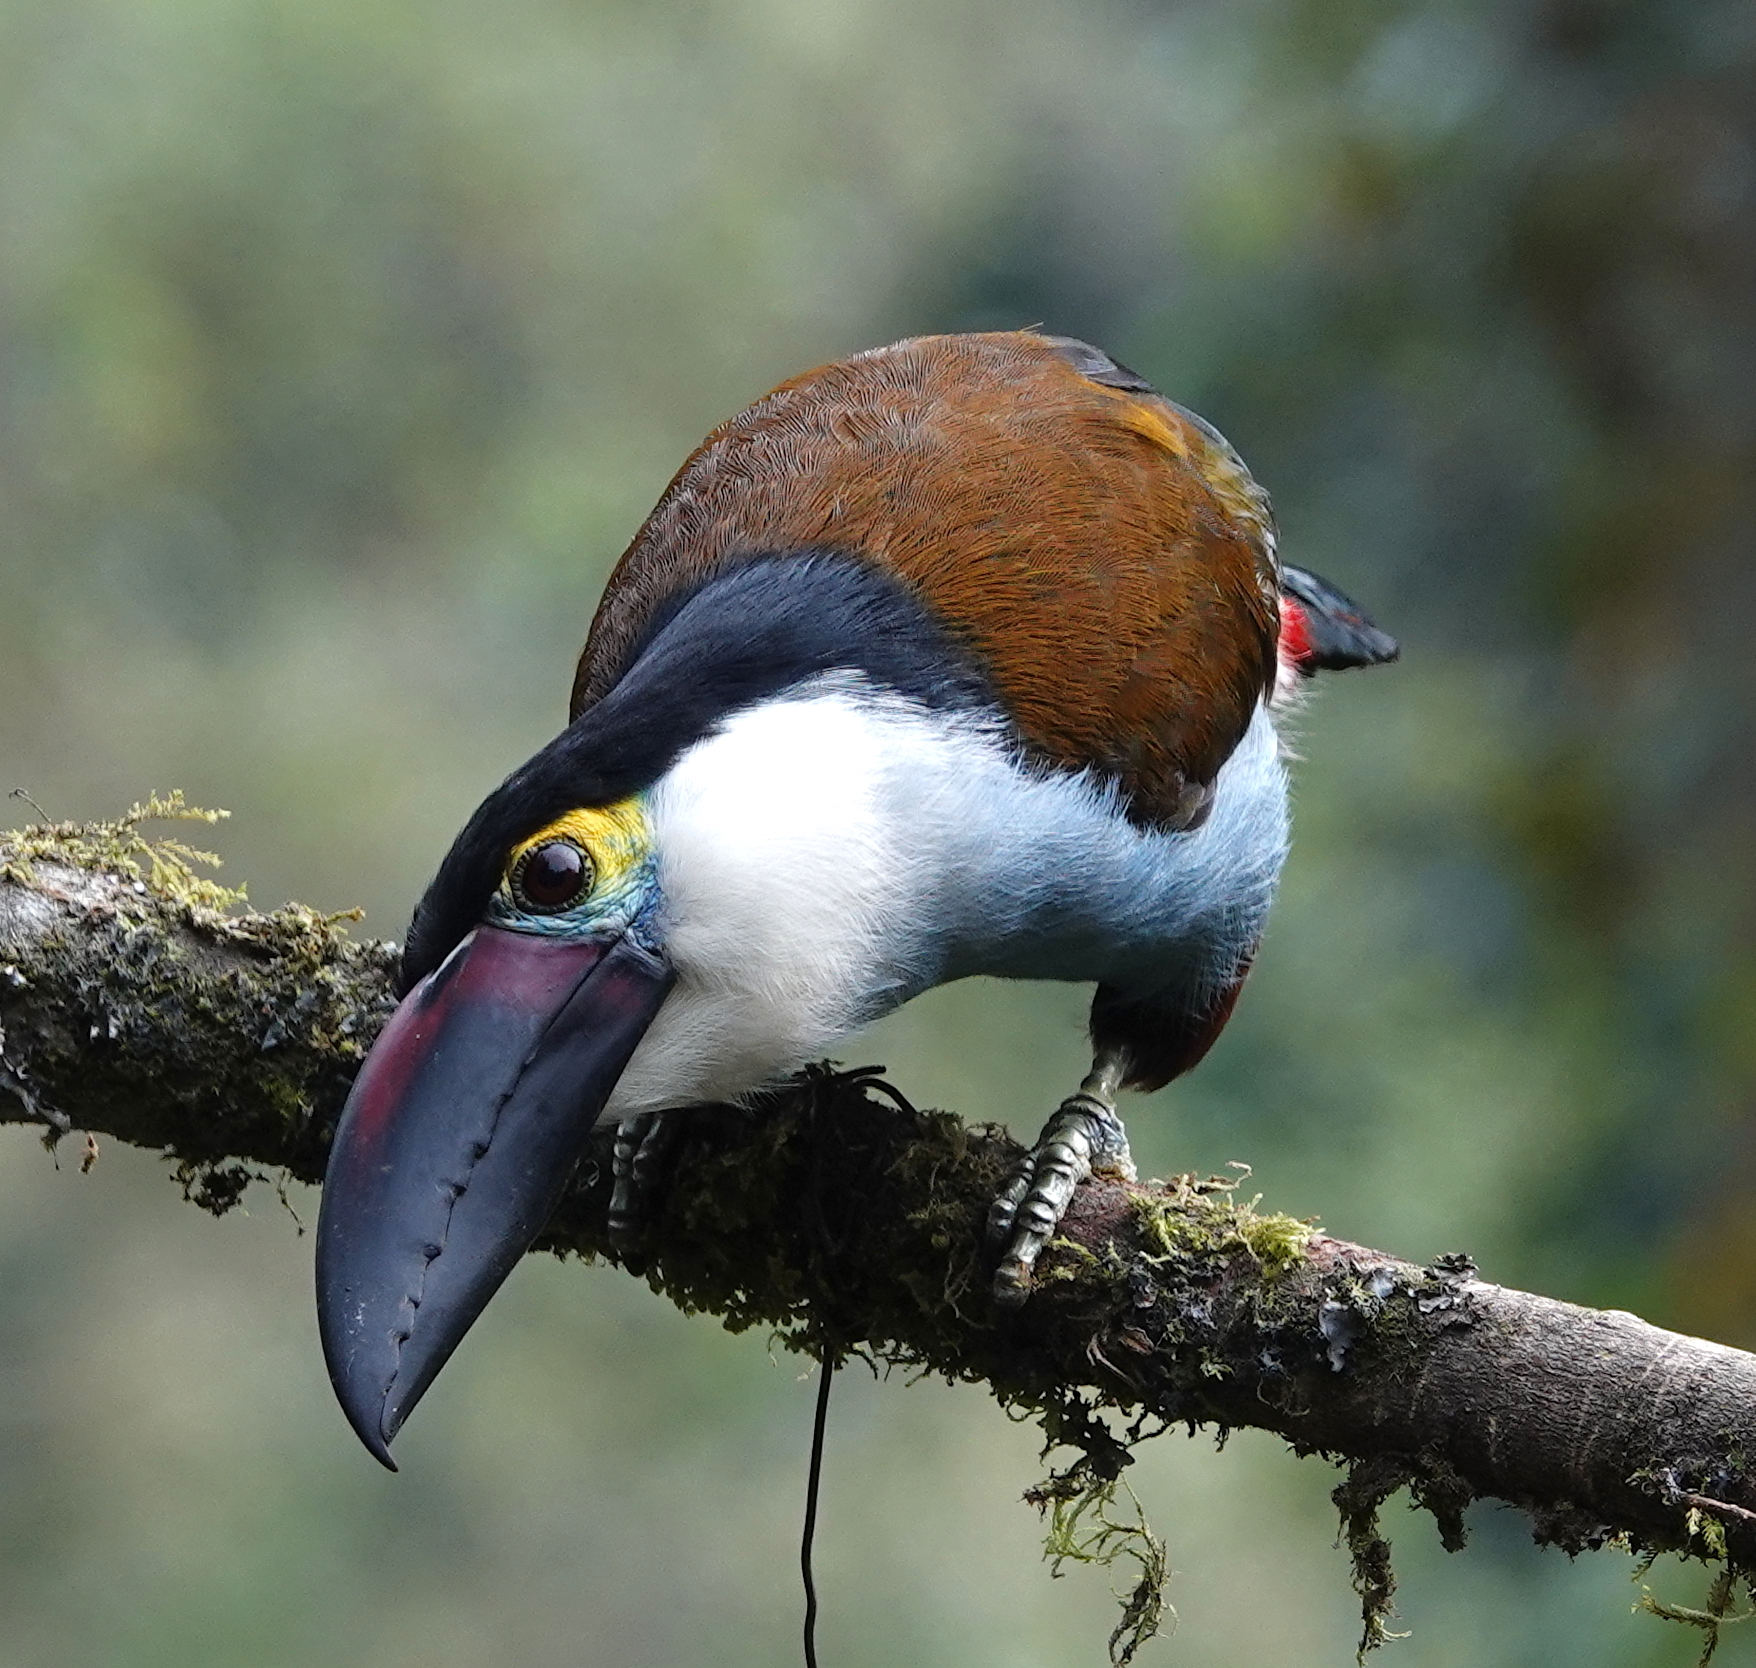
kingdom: Animalia
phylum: Chordata
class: Aves
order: Piciformes
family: Ramphastidae
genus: Andigena
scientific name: Andigena nigrirostris
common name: Black-billed mountain toucan
